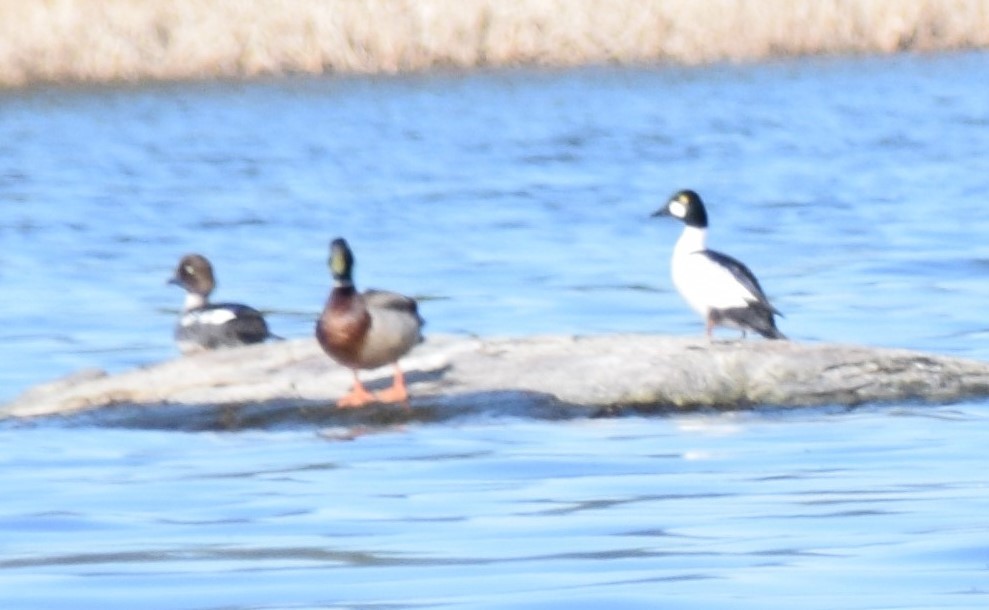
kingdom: Animalia
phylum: Chordata
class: Aves
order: Anseriformes
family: Anatidae
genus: Bucephala
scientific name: Bucephala clangula
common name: Common goldeneye
